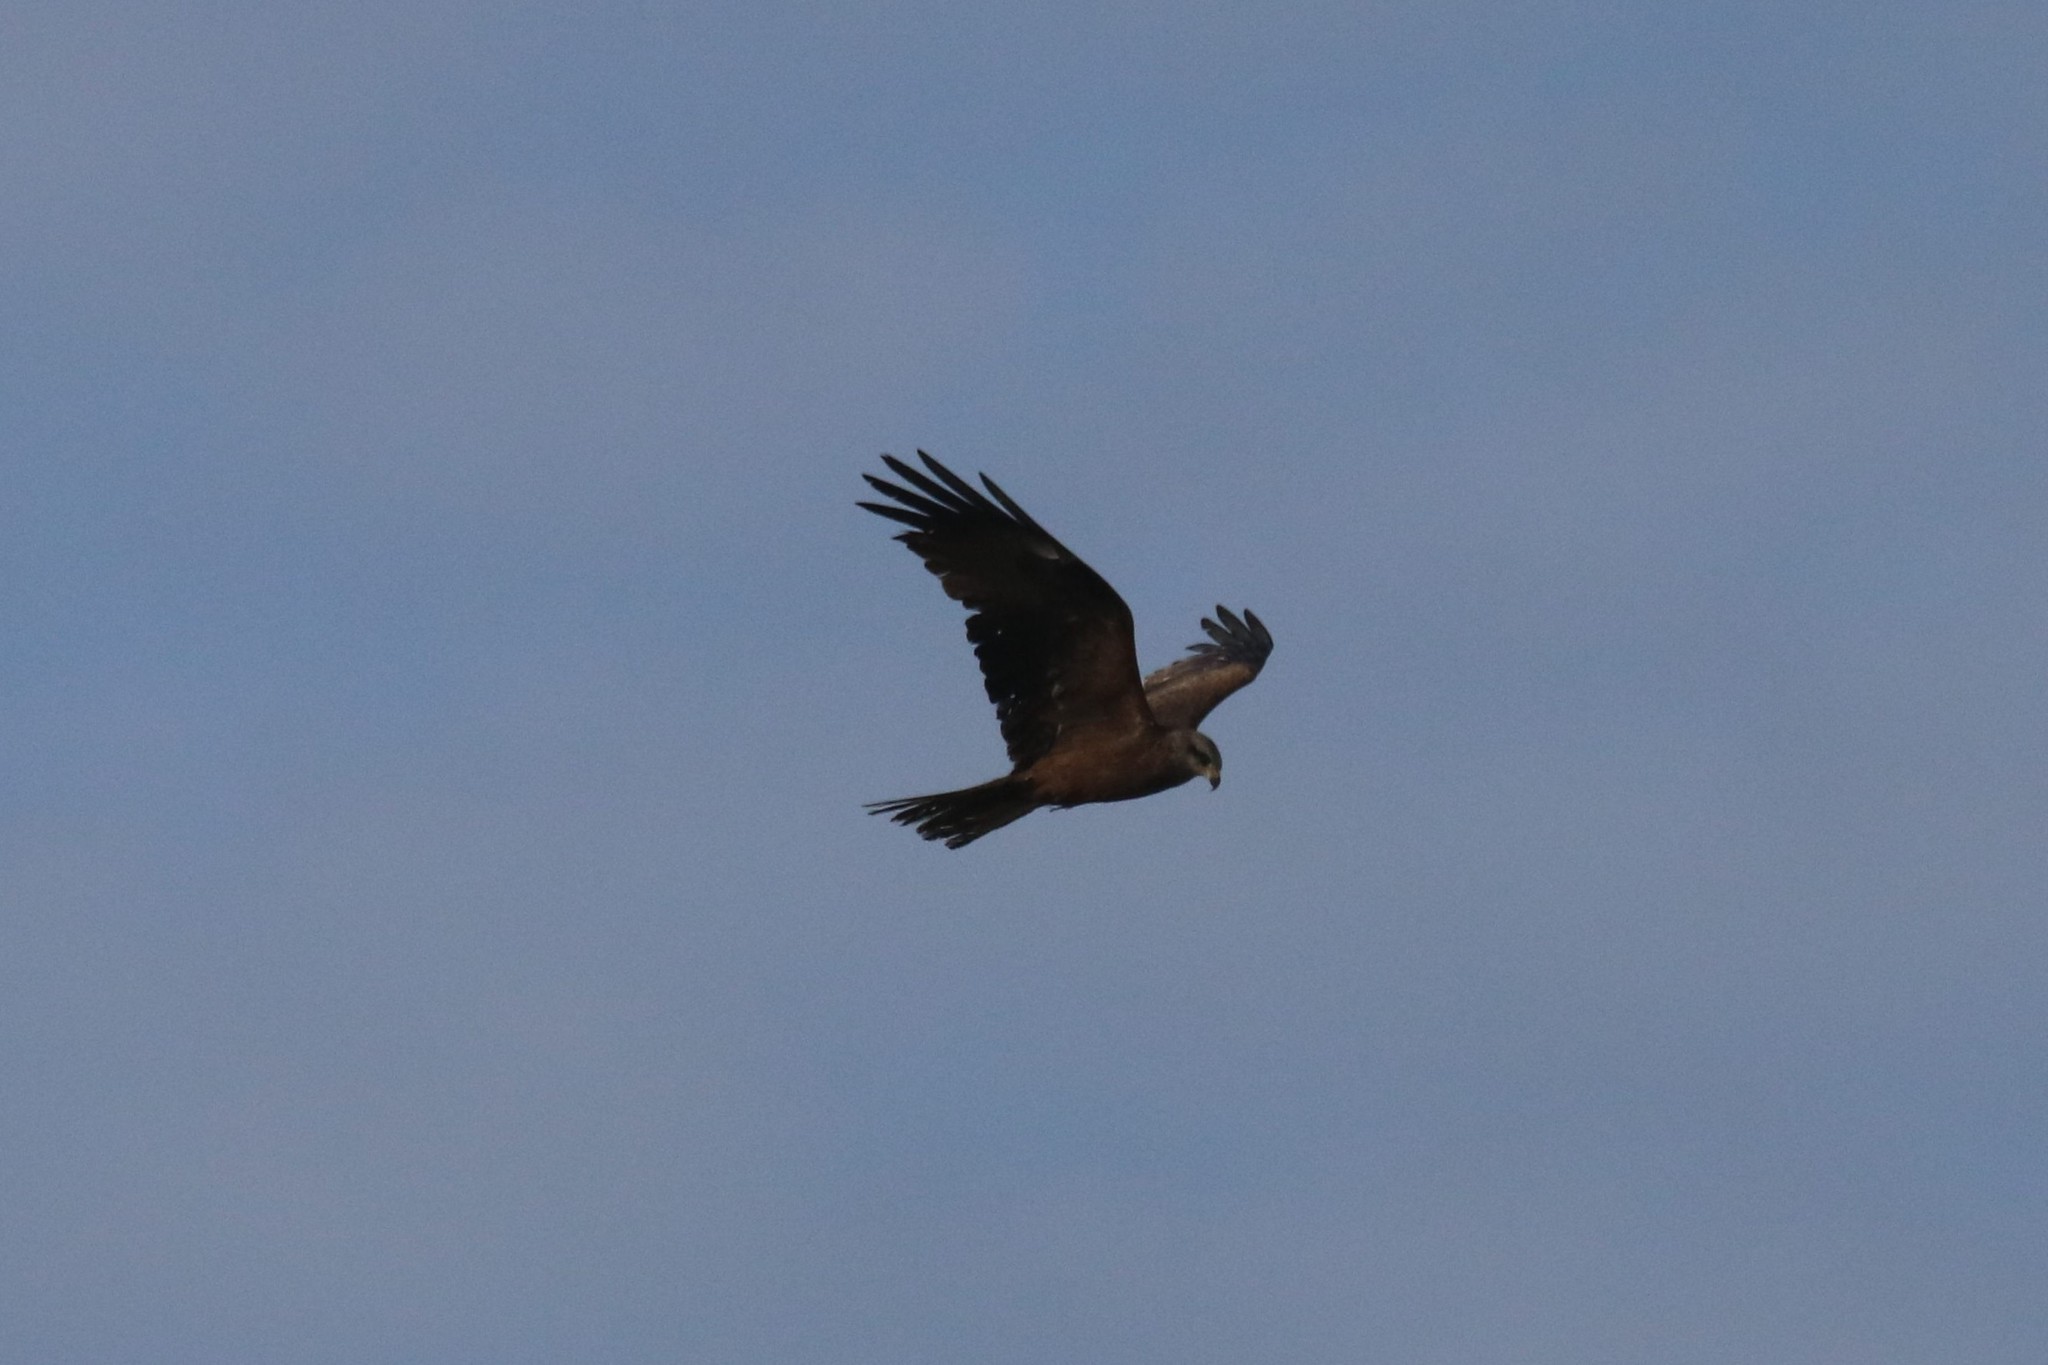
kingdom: Animalia
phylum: Chordata
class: Aves
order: Accipitriformes
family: Accipitridae
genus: Milvus
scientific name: Milvus migrans
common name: Black kite
